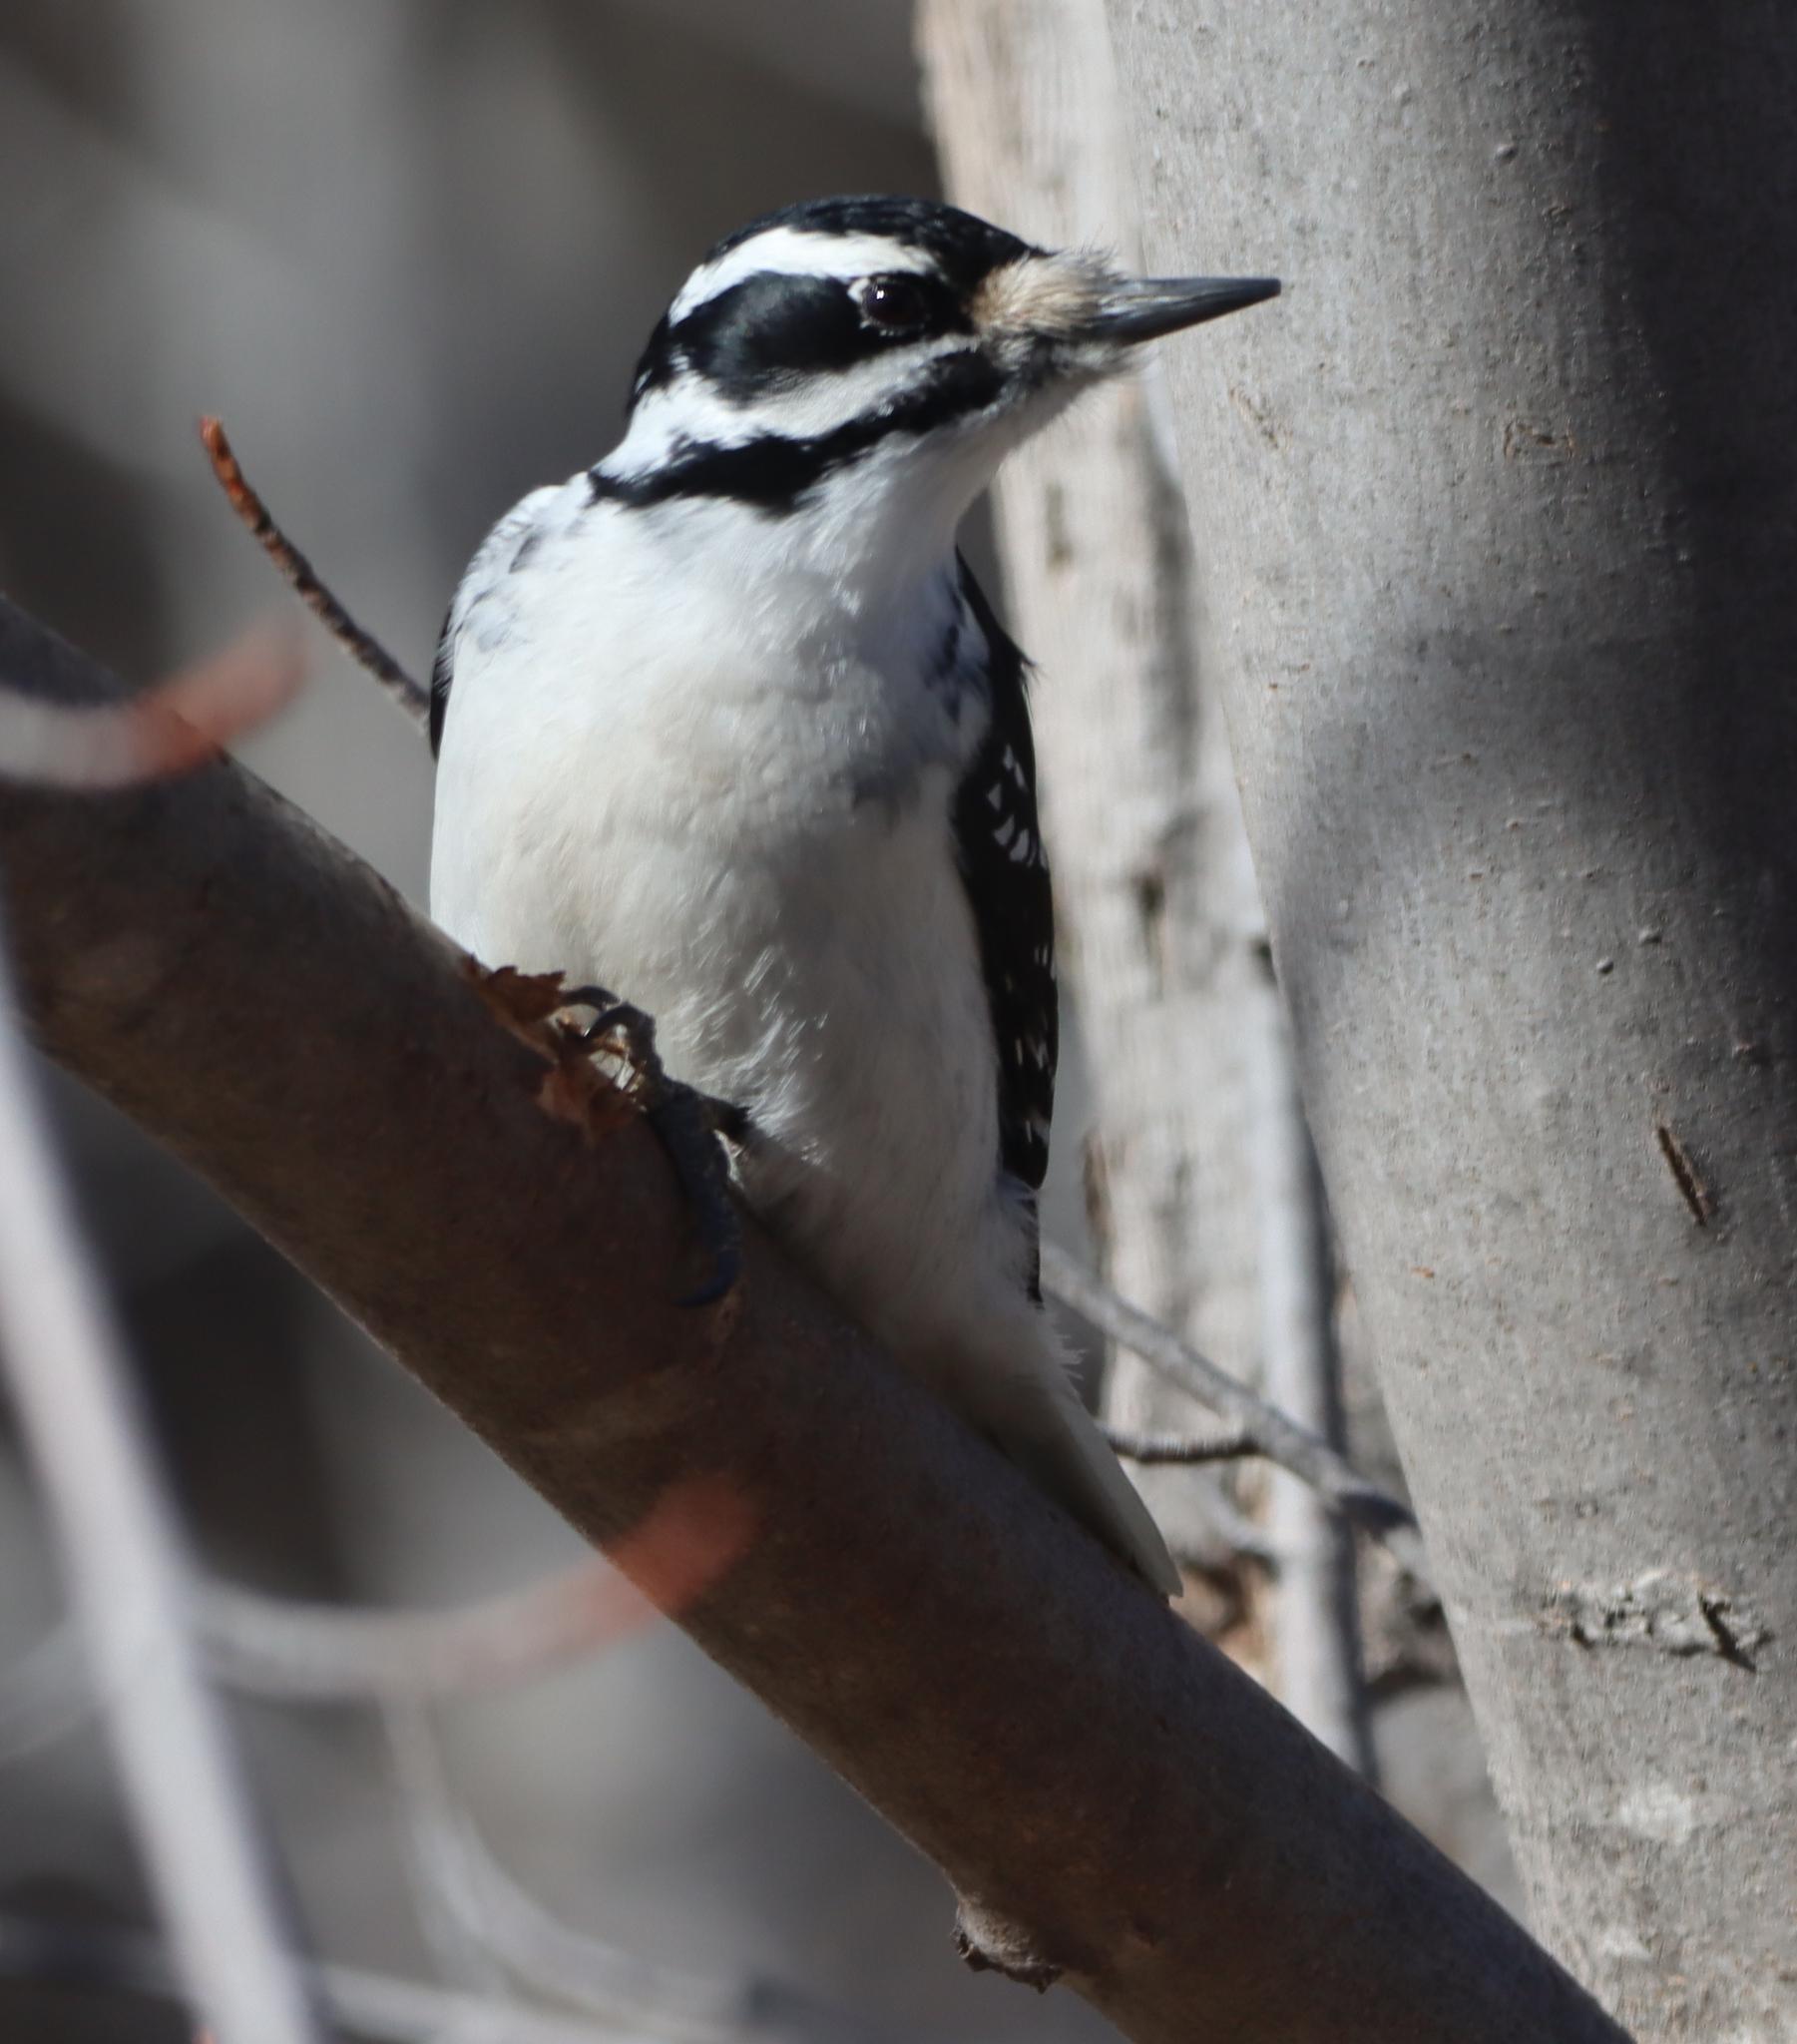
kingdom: Animalia
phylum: Chordata
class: Aves
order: Piciformes
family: Picidae
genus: Leuconotopicus
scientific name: Leuconotopicus villosus
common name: Hairy woodpecker
